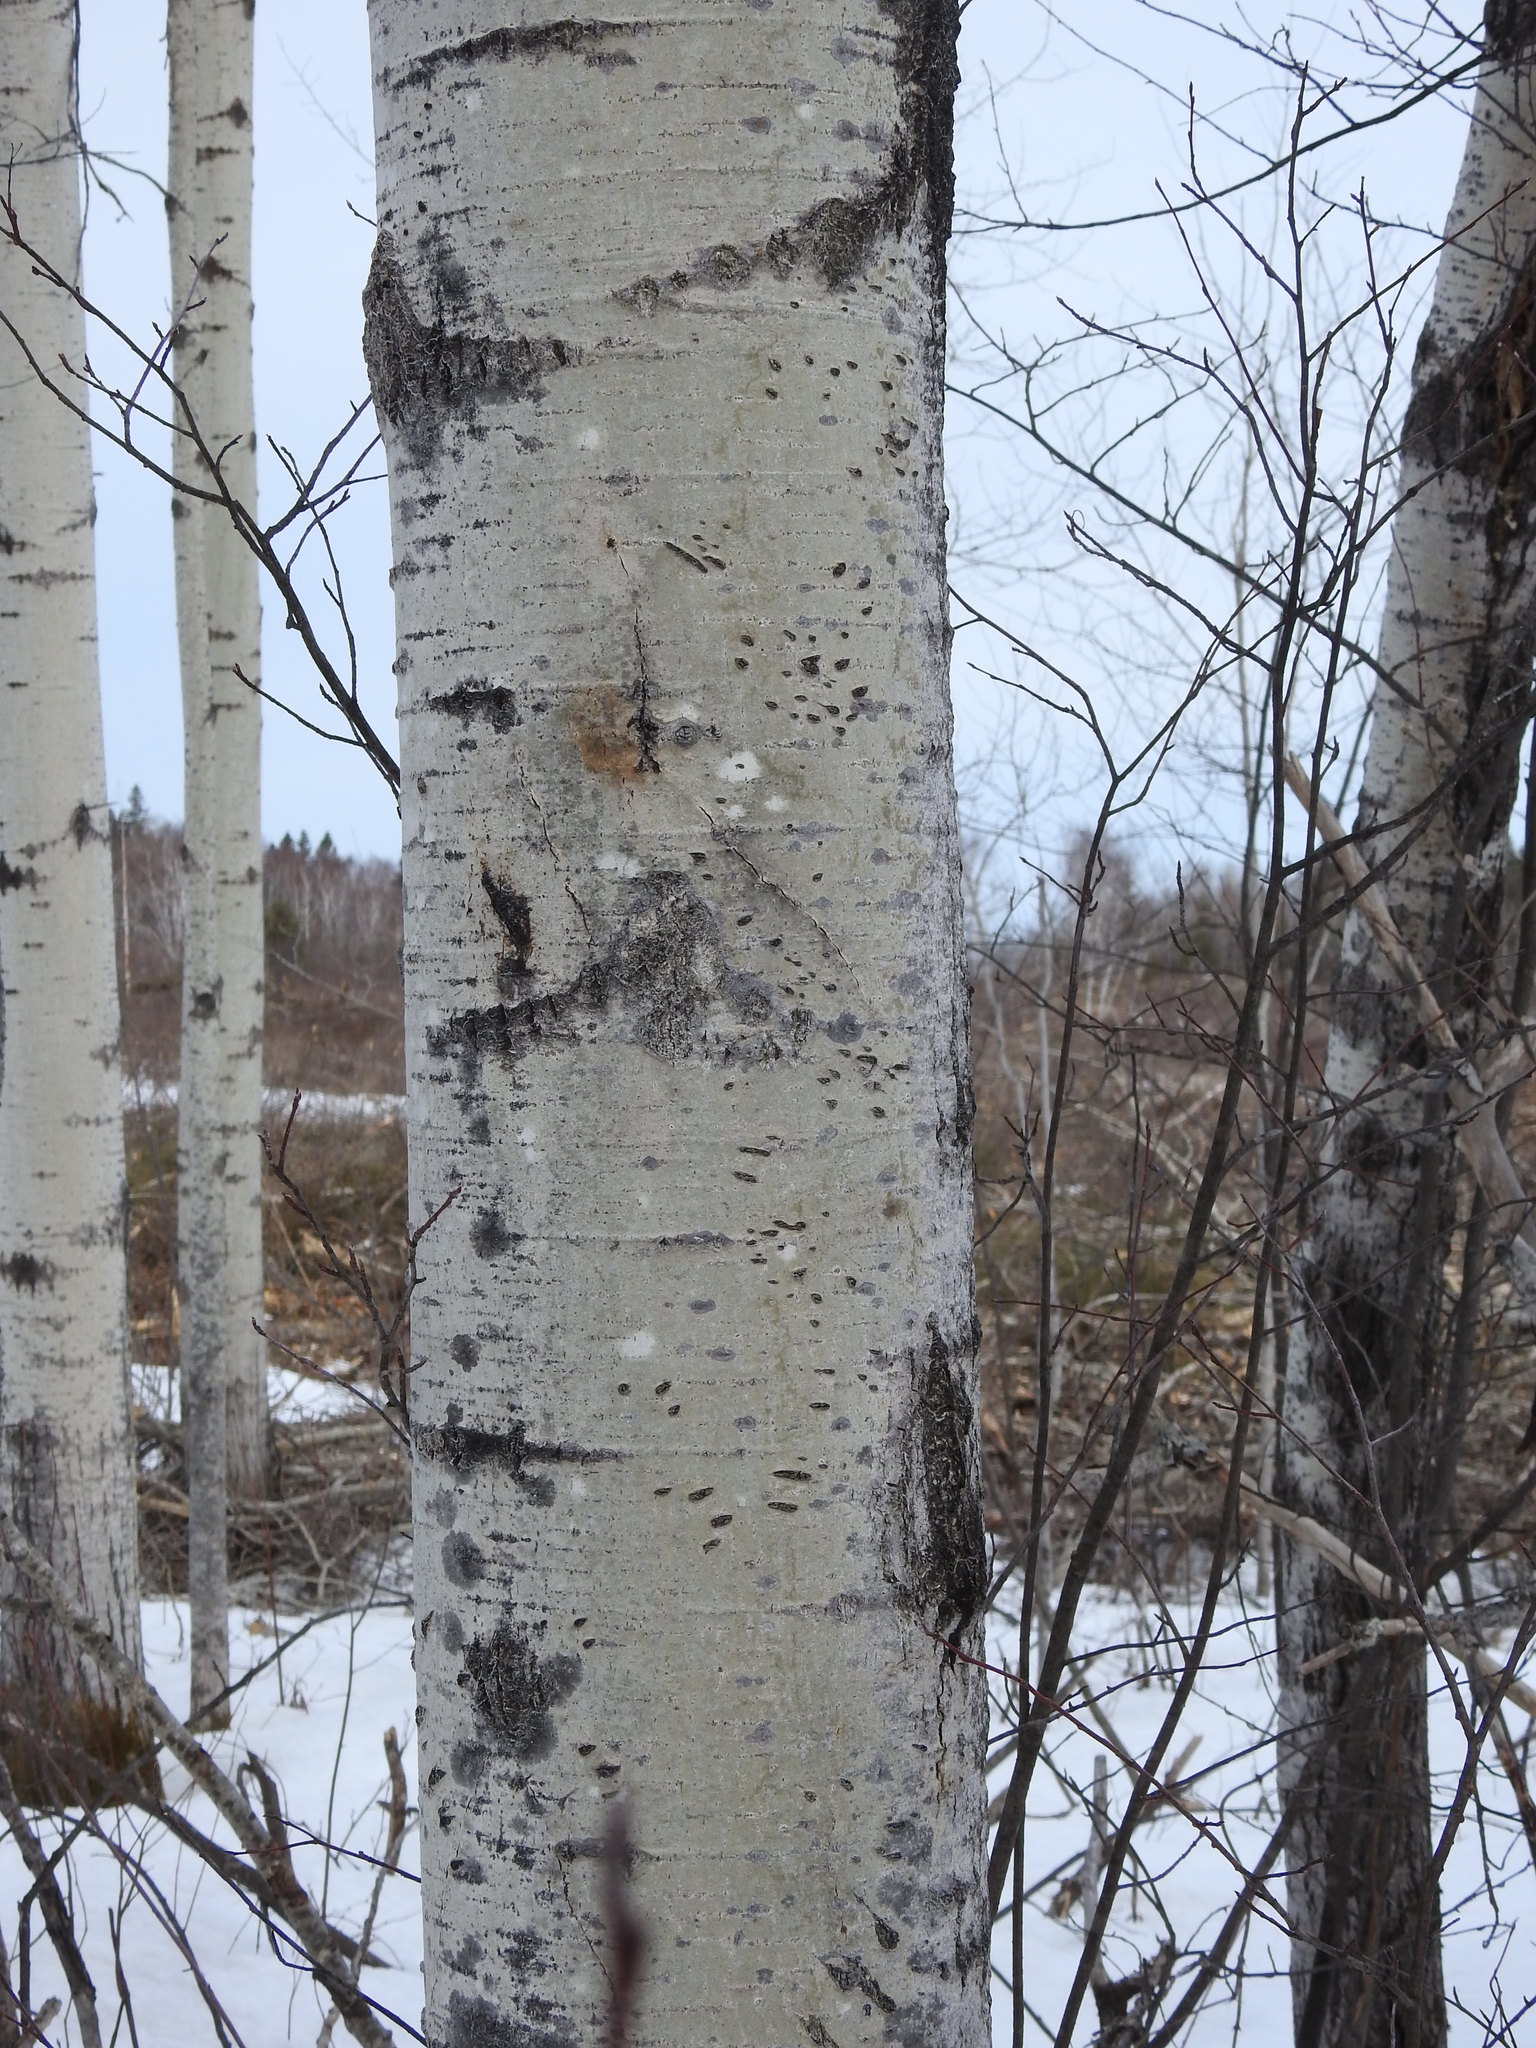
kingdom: Plantae
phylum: Tracheophyta
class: Magnoliopsida
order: Malpighiales
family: Salicaceae
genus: Populus
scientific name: Populus tremuloides
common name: Quaking aspen
